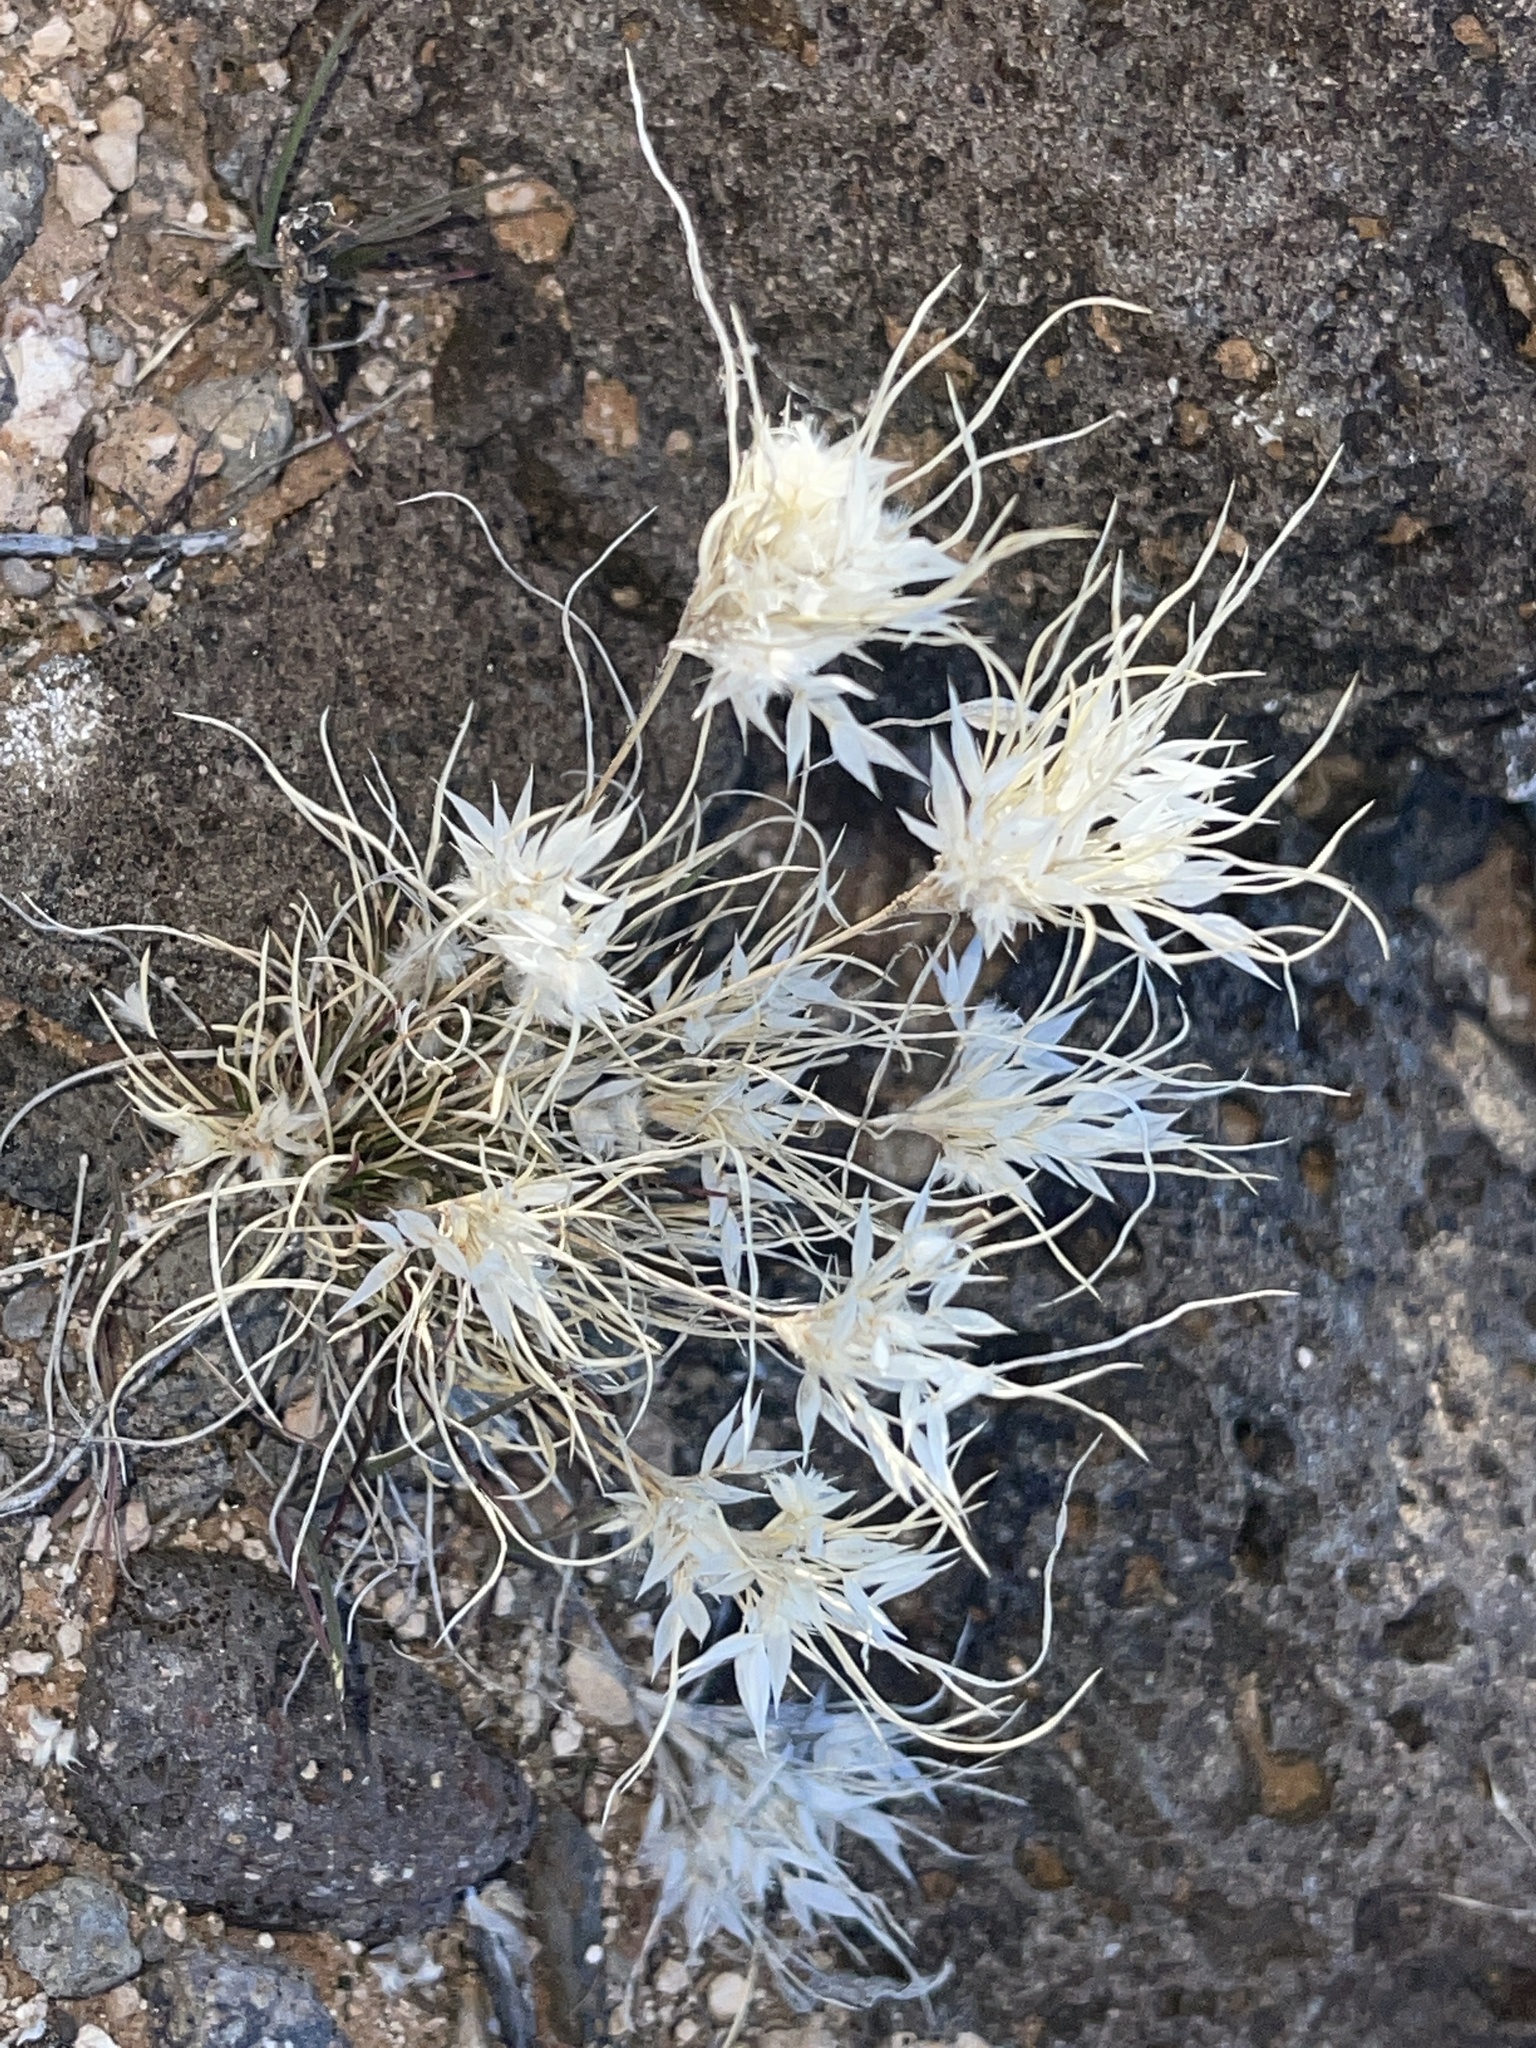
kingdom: Plantae
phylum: Tracheophyta
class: Liliopsida
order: Poales
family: Poaceae
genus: Dasyochloa
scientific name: Dasyochloa pulchella
